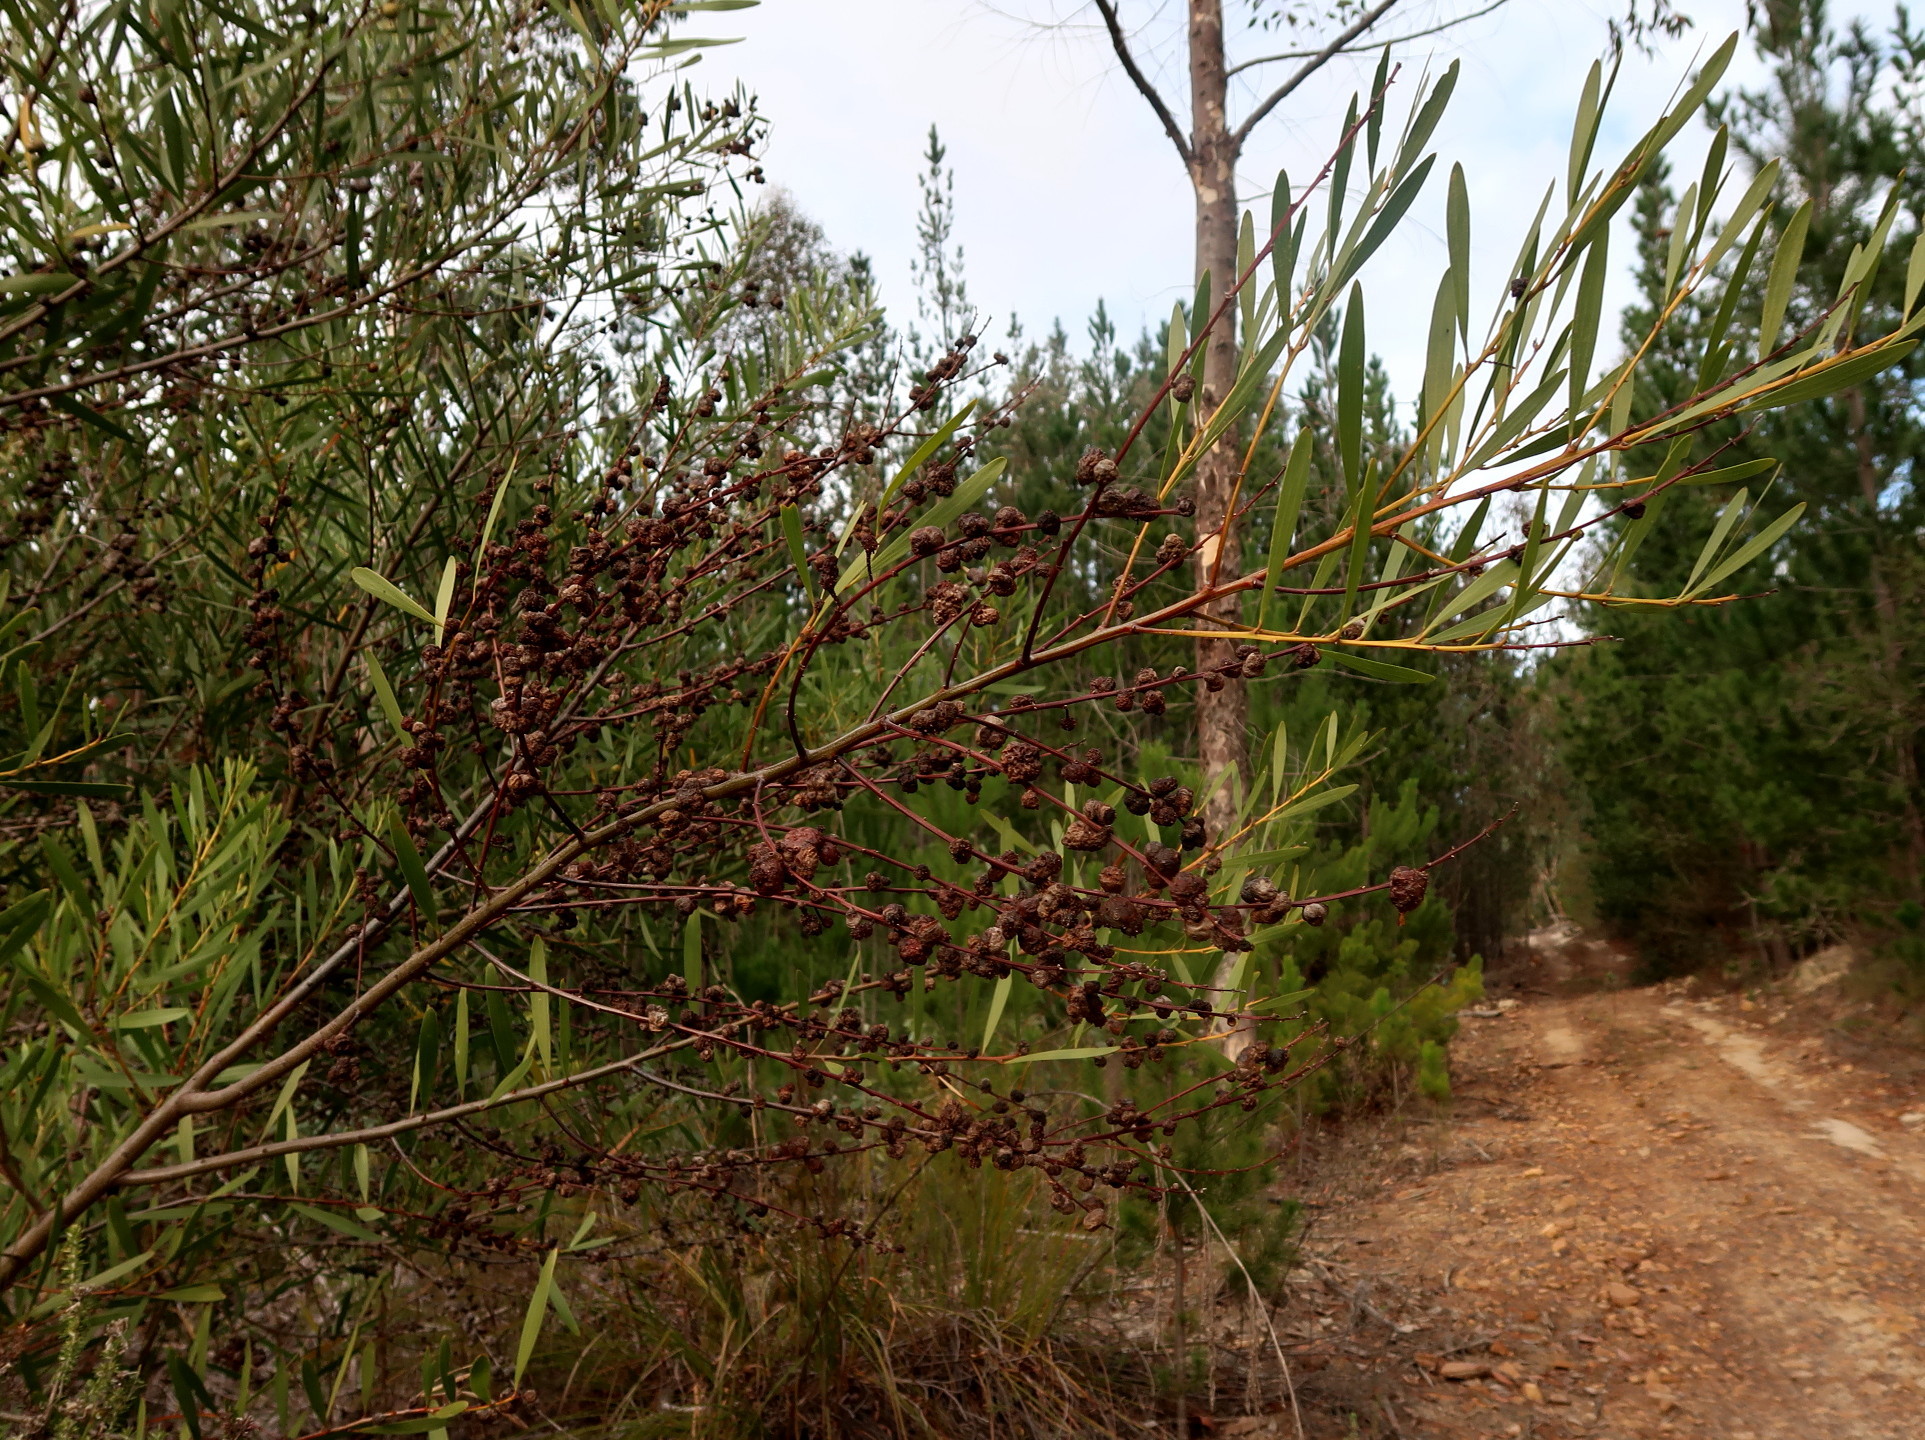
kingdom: Plantae
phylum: Tracheophyta
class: Magnoliopsida
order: Fabales
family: Fabaceae
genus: Acacia
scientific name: Acacia longifolia
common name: Sydney golden wattle
